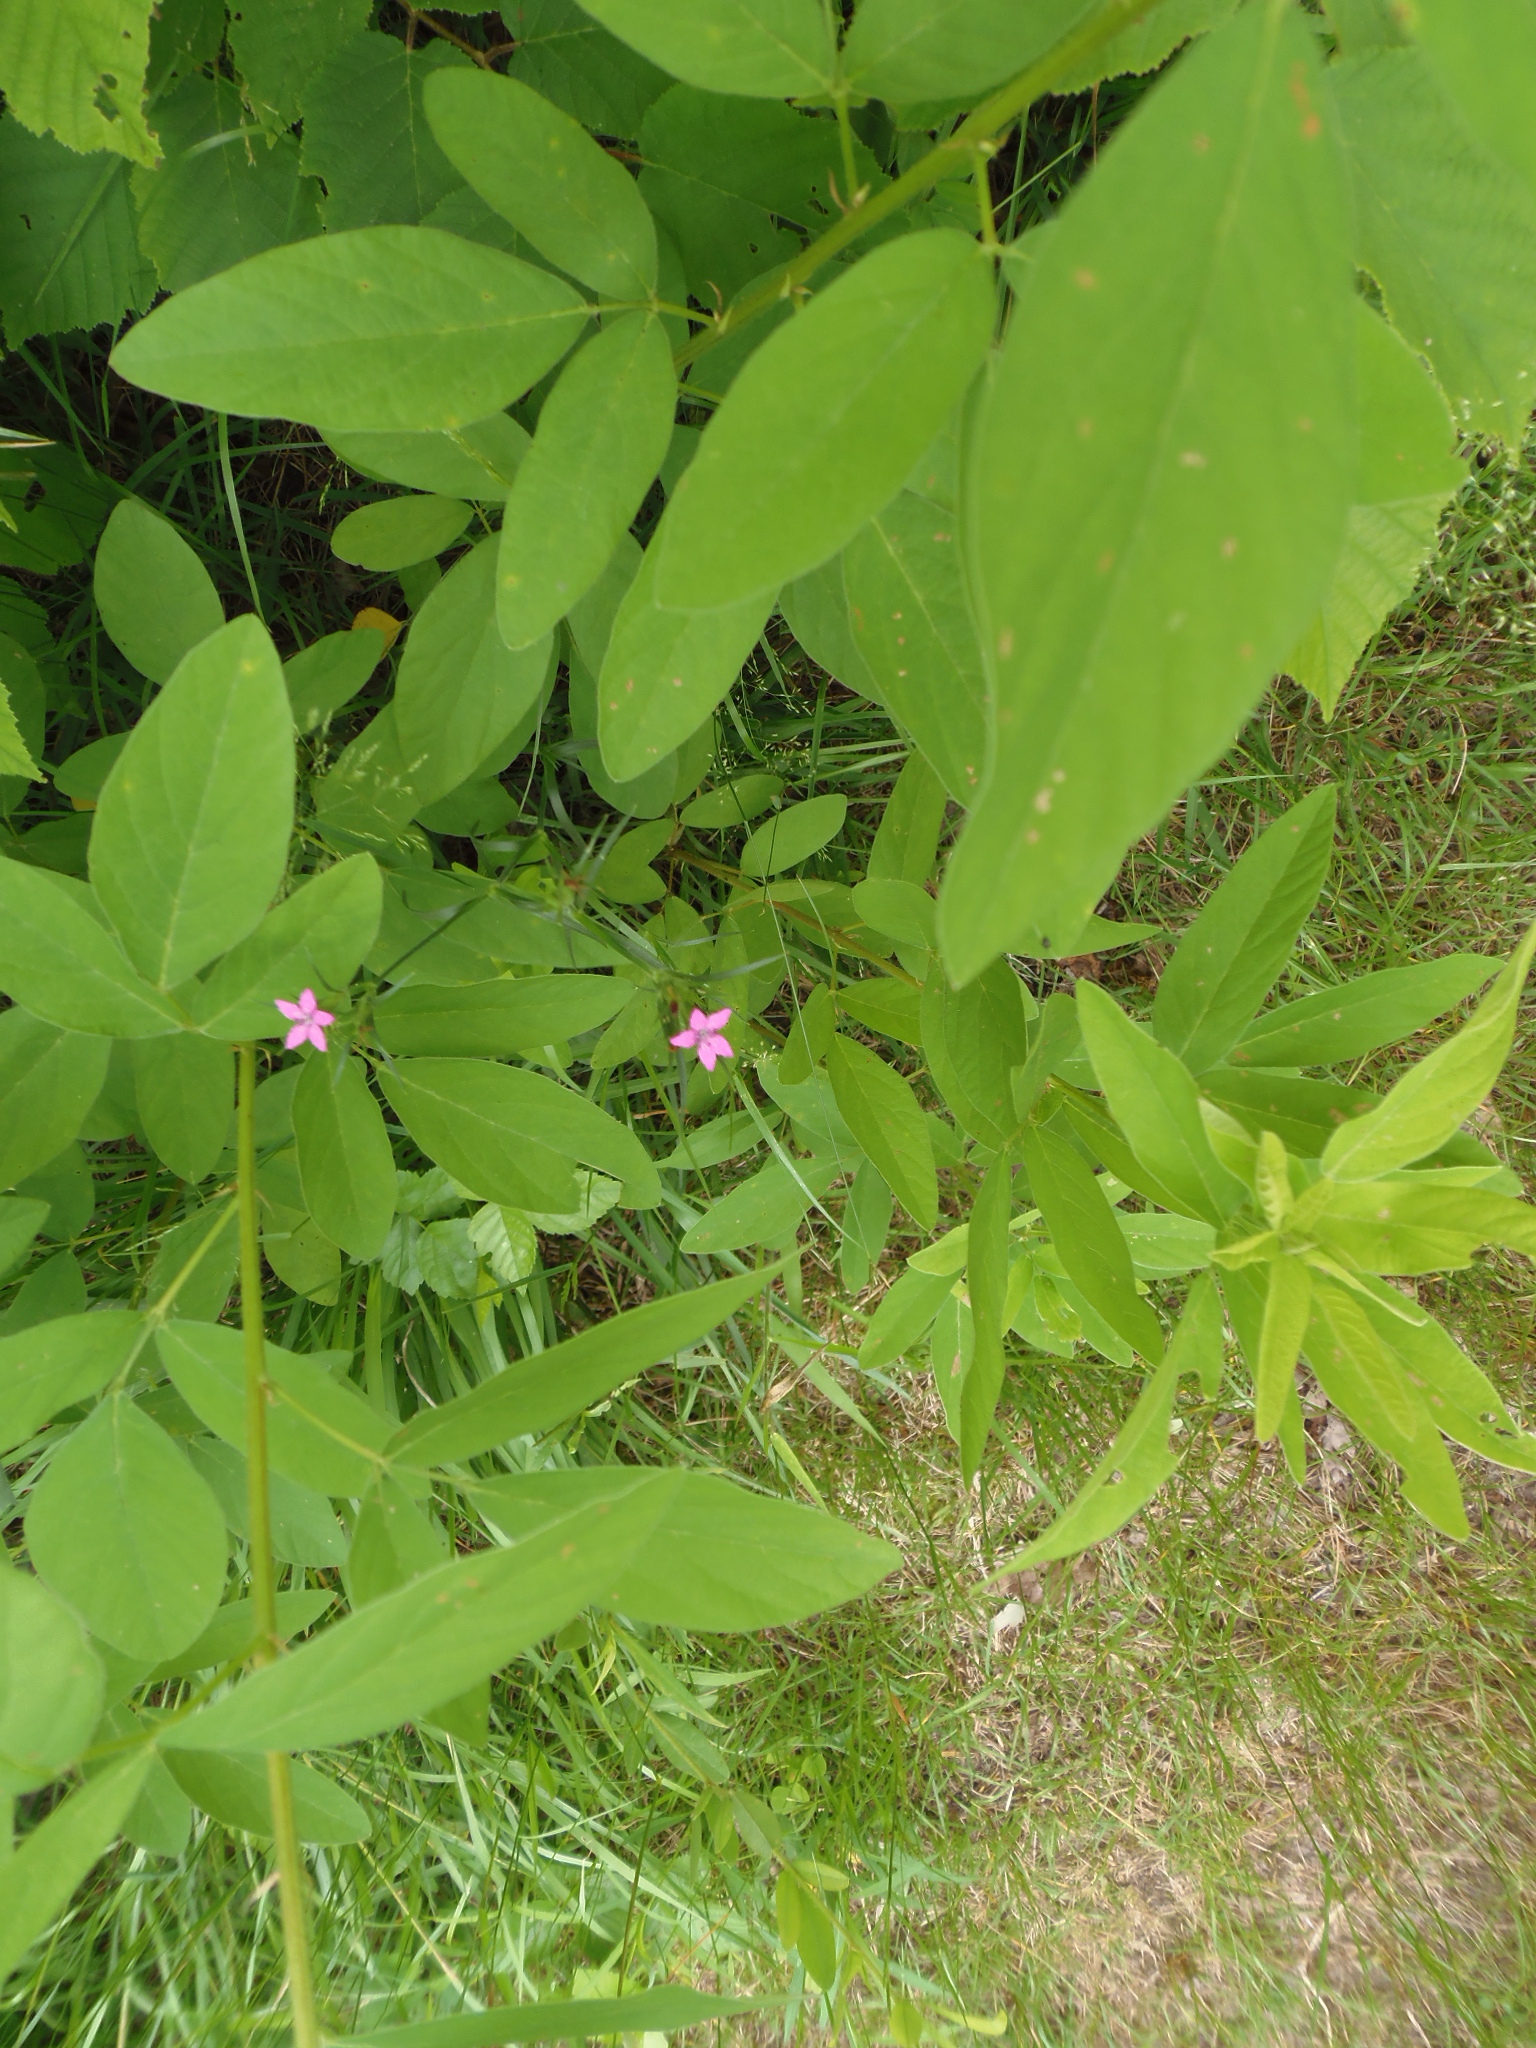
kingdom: Plantae
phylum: Tracheophyta
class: Magnoliopsida
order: Fabales
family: Fabaceae
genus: Desmodium
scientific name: Desmodium canadense
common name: Canada tick-trefoil
